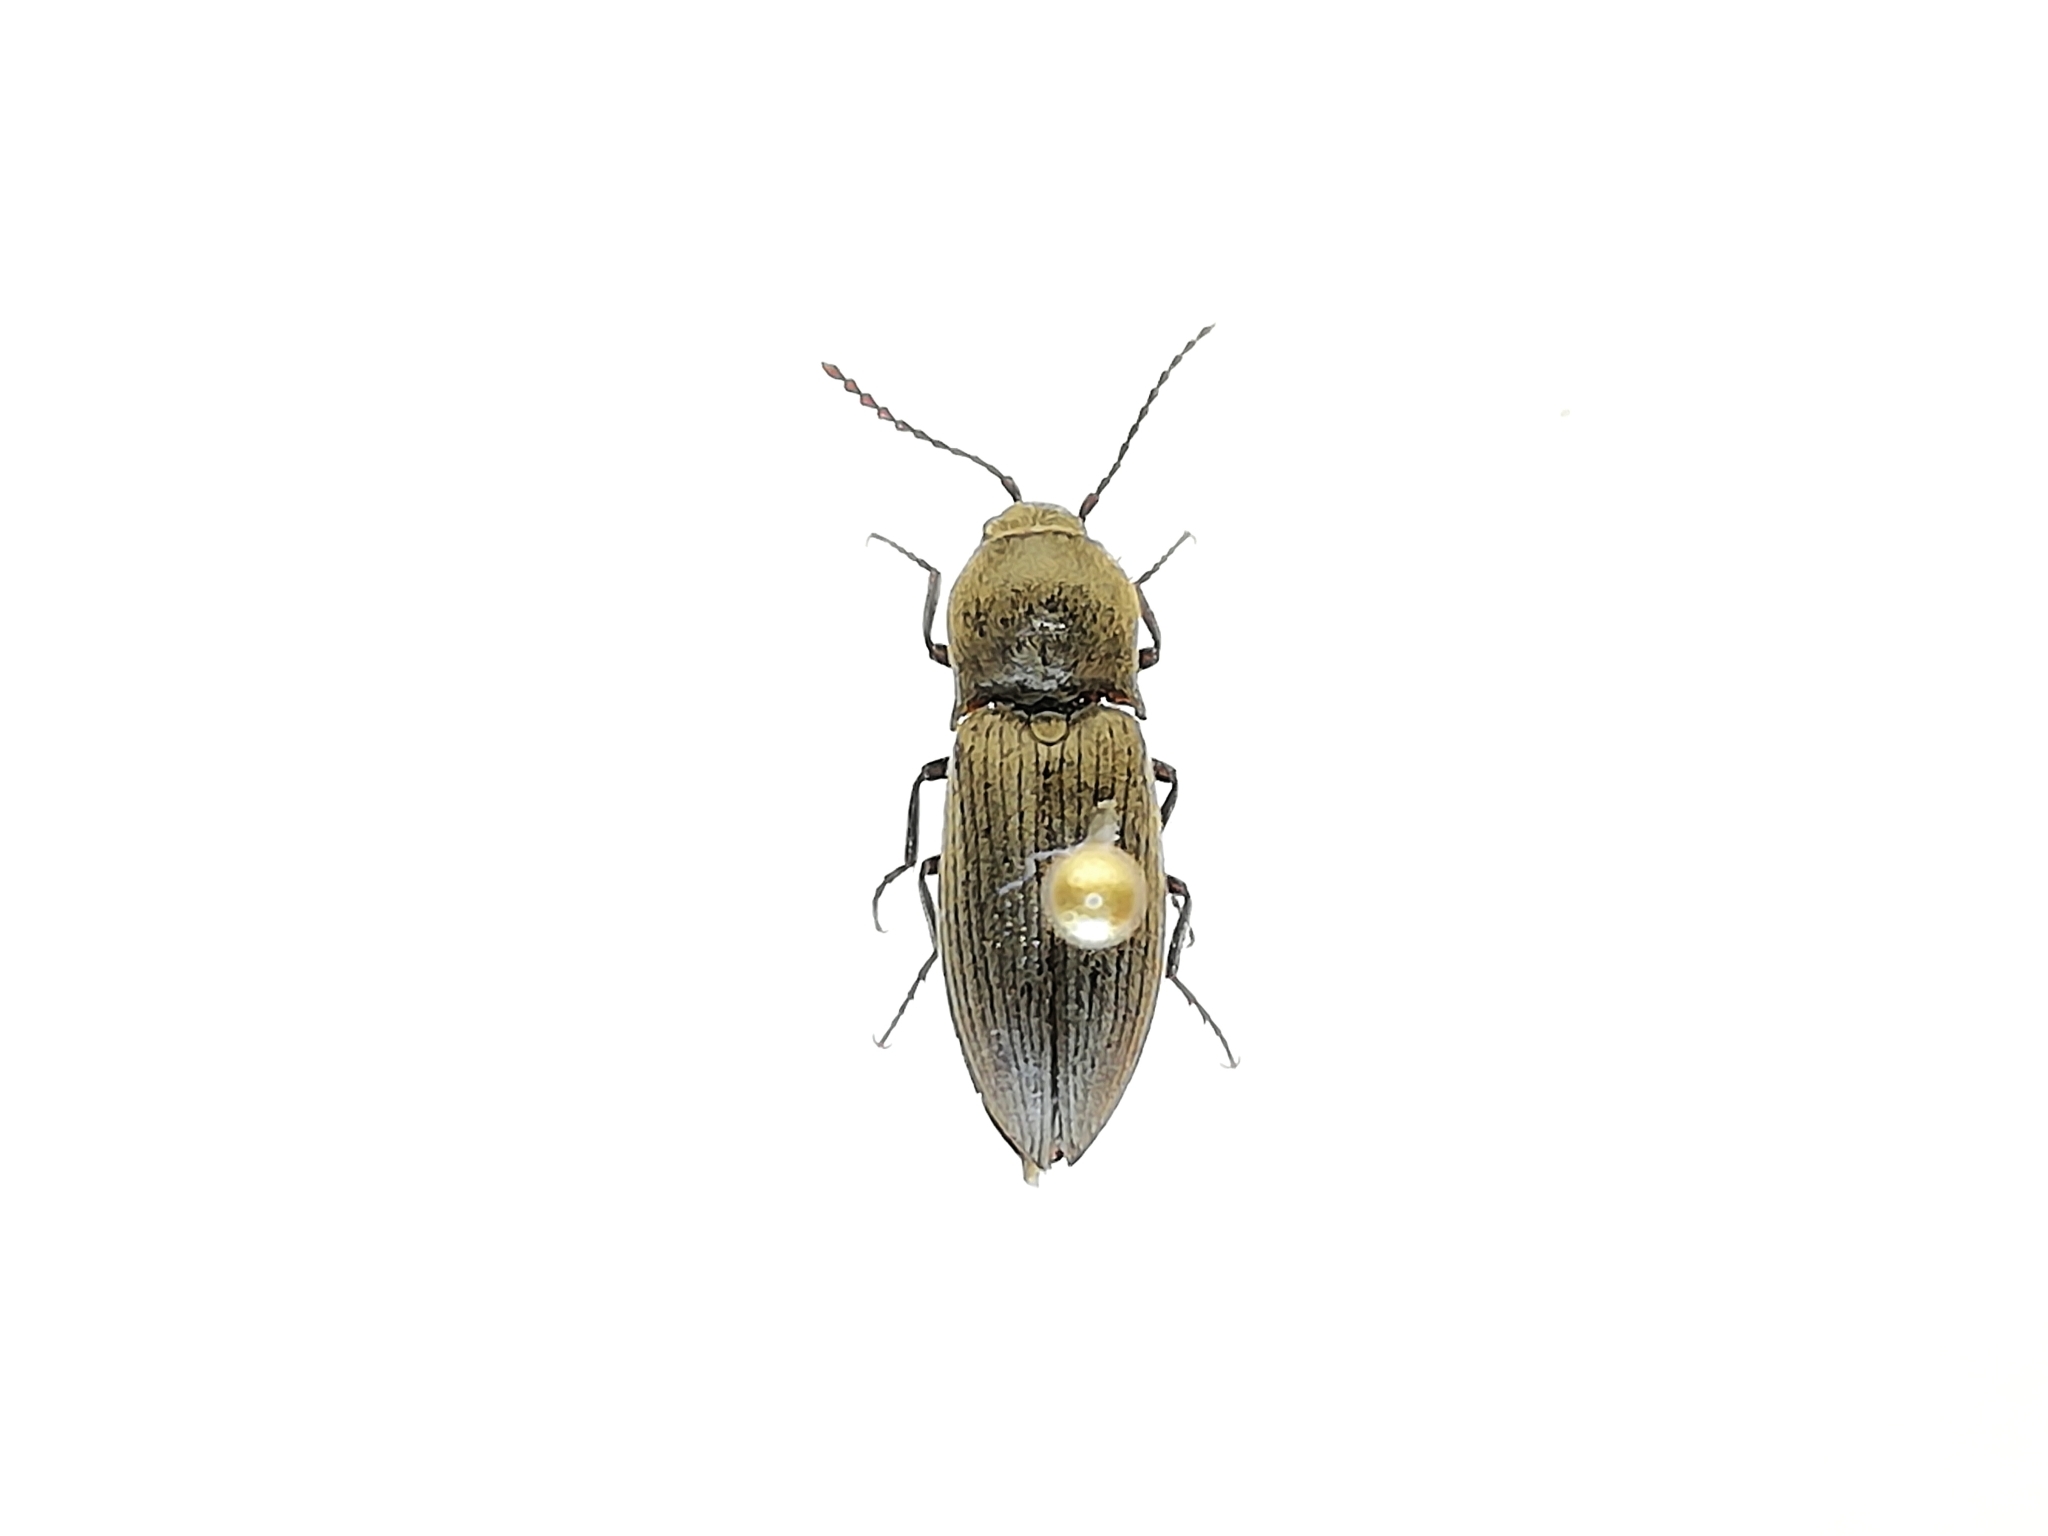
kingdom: Animalia
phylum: Arthropoda
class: Insecta
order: Coleoptera
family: Elateridae
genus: Agriotes
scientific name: Agriotes obscurus
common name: Dusky wireworm
